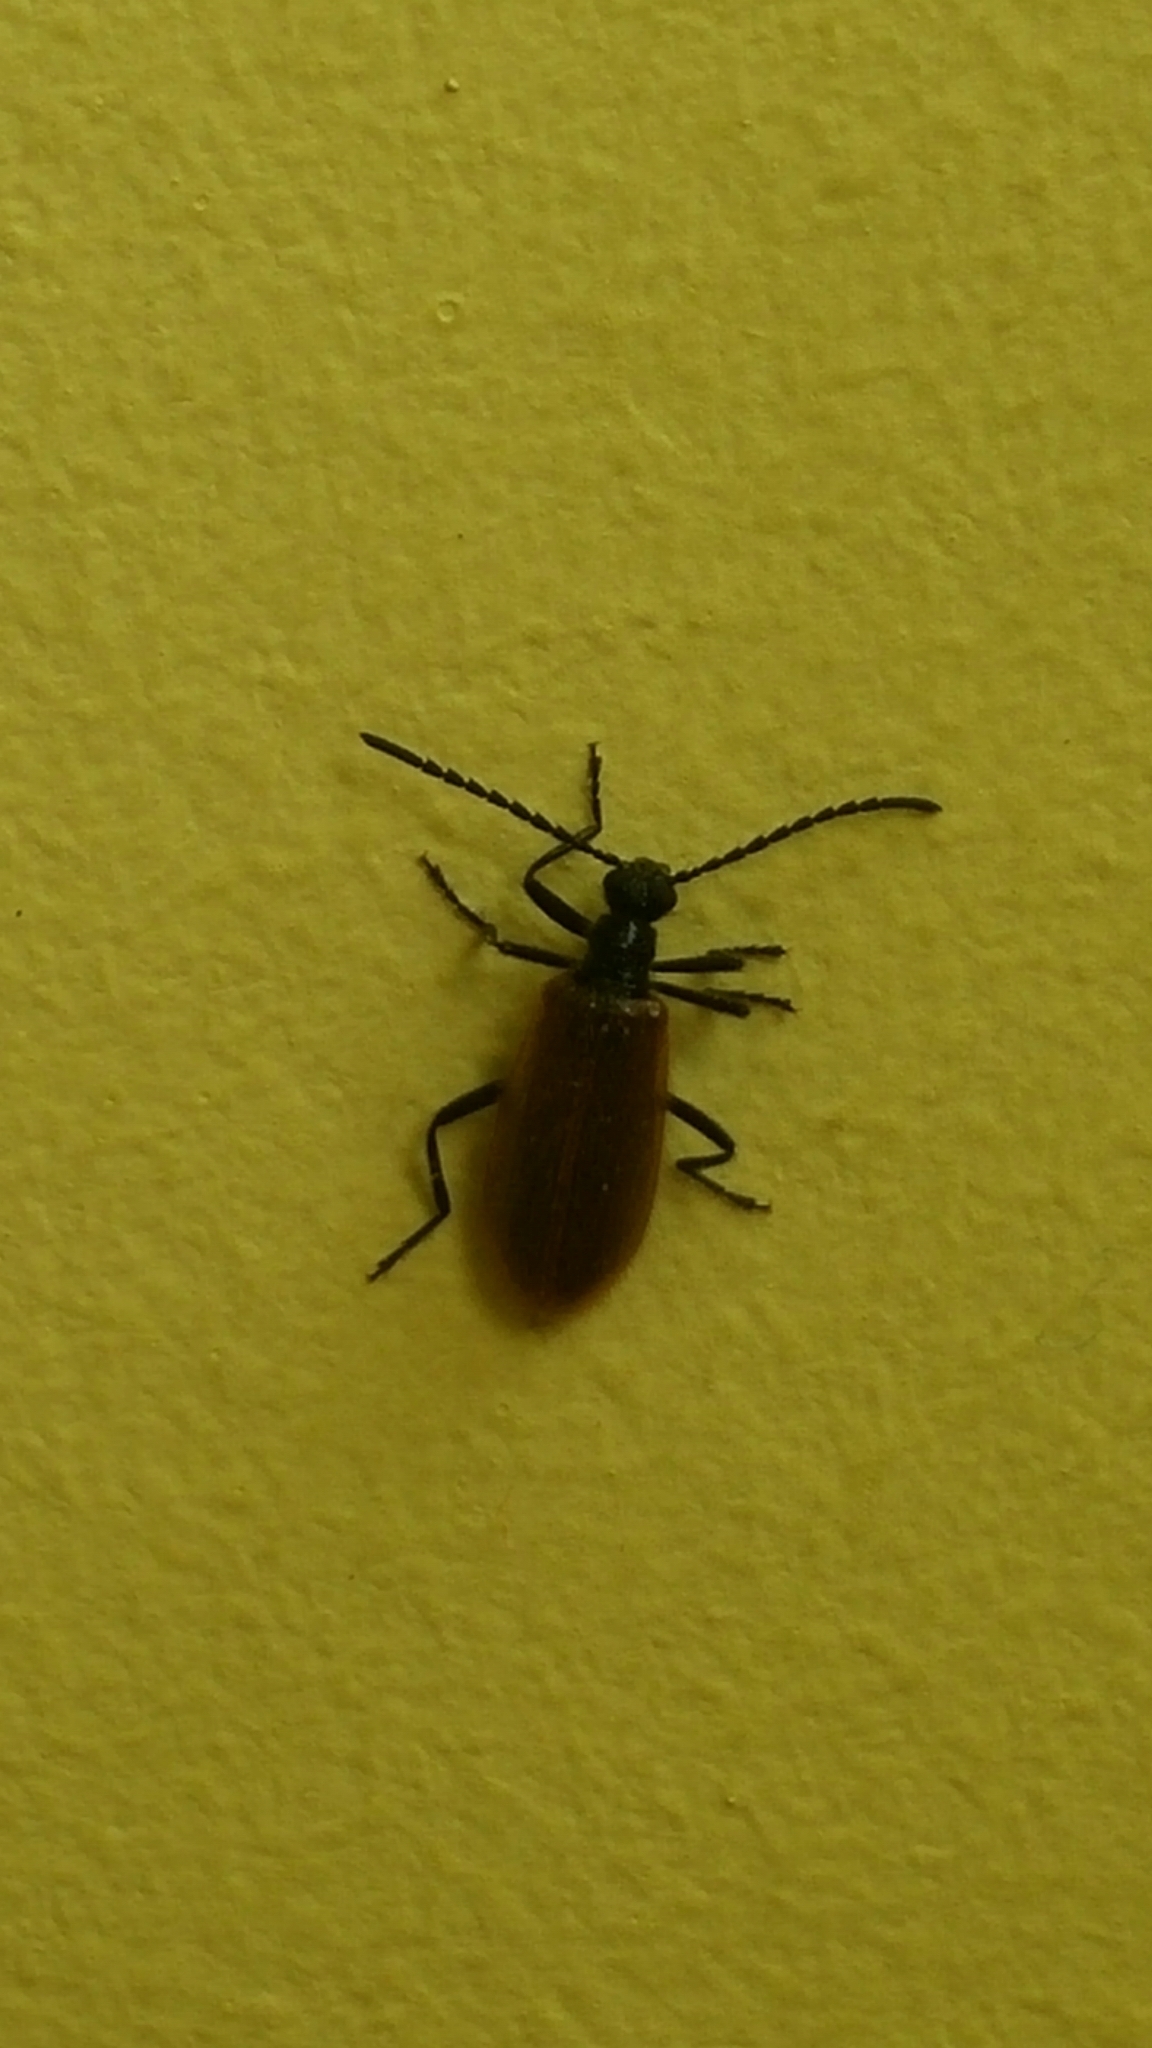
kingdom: Animalia
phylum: Arthropoda
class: Insecta
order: Coleoptera
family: Tenebrionidae
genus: Lagria
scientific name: Lagria hirta
